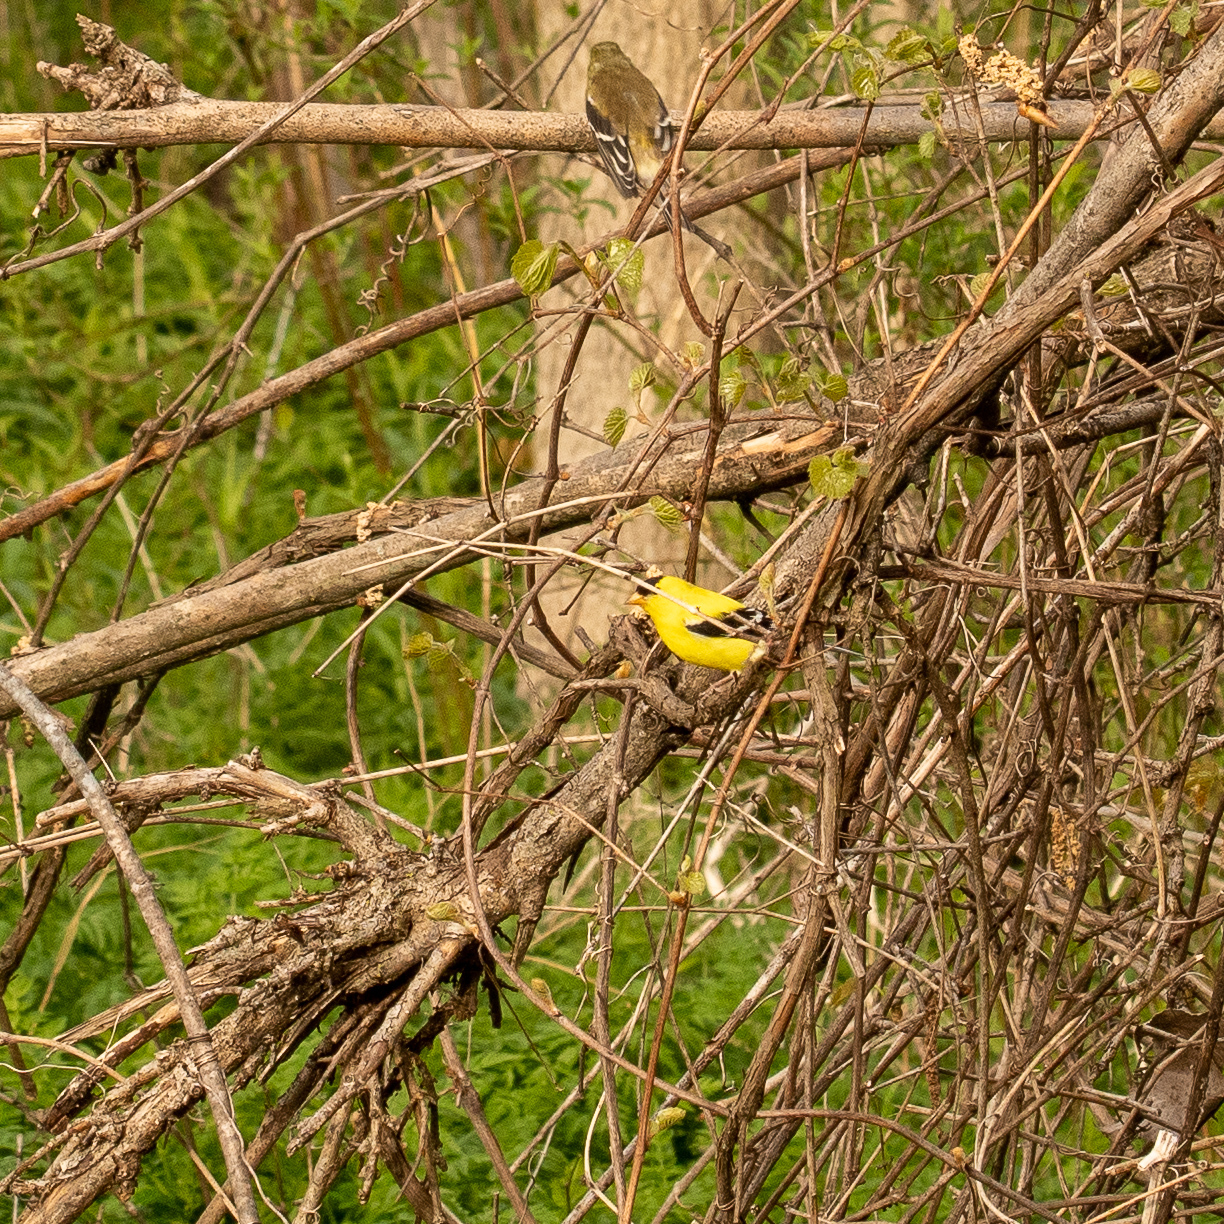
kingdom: Animalia
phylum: Chordata
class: Aves
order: Passeriformes
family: Fringillidae
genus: Spinus
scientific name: Spinus tristis
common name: American goldfinch
